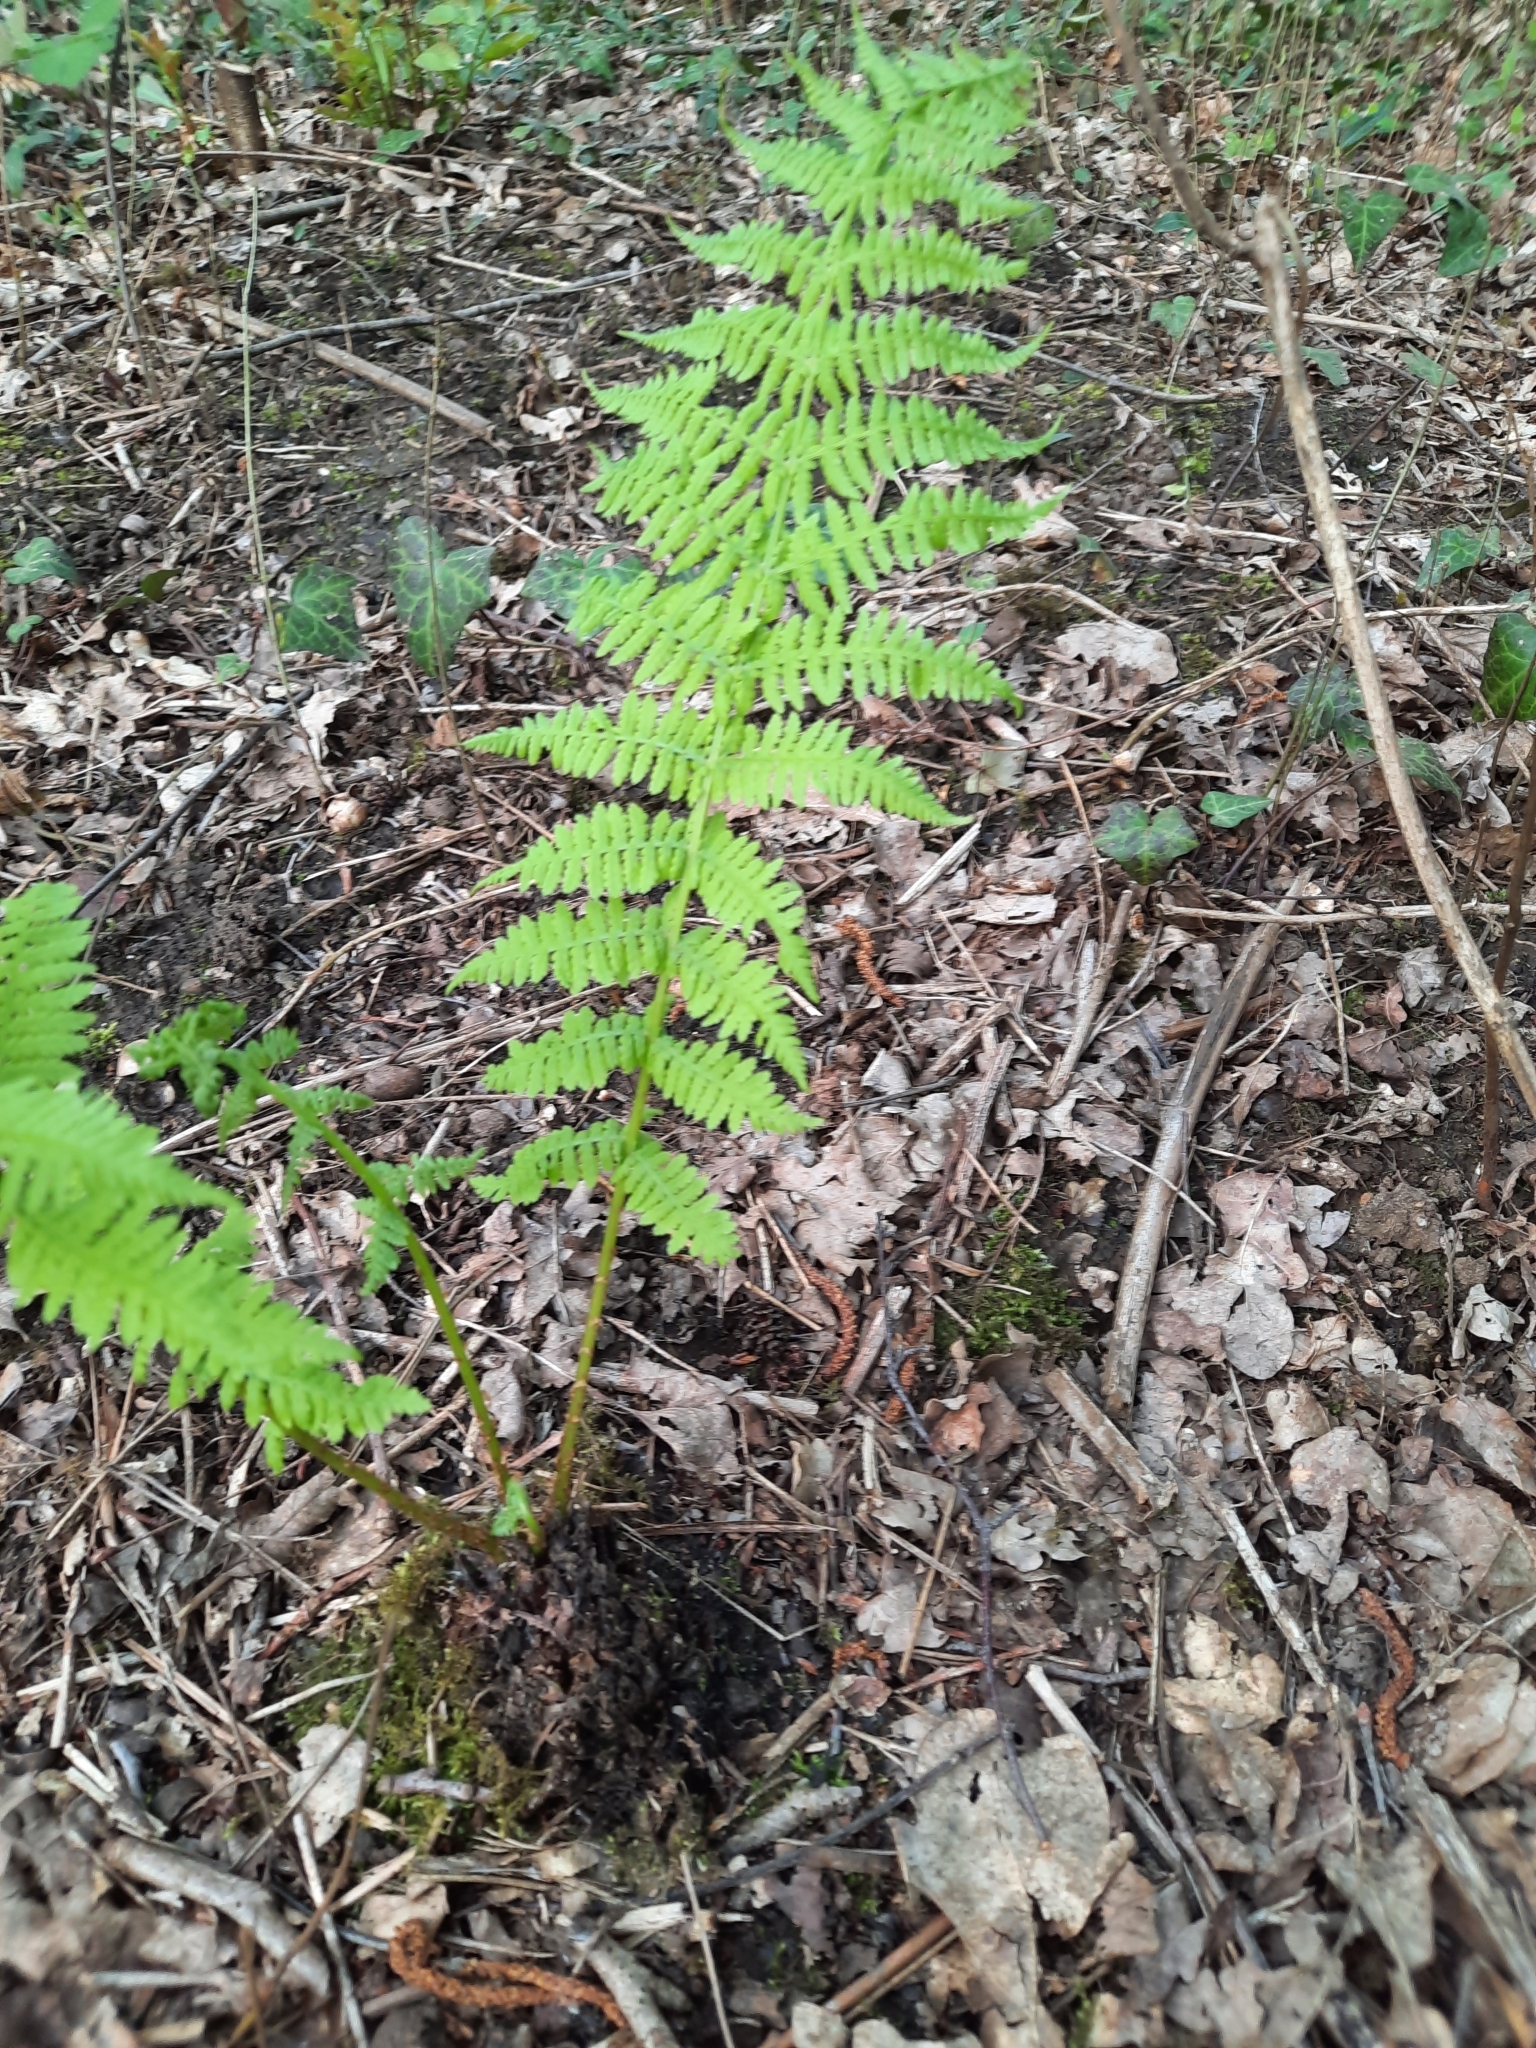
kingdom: Plantae
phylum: Tracheophyta
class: Polypodiopsida
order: Polypodiales
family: Athyriaceae
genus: Athyrium
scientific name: Athyrium filix-femina
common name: Lady fern
